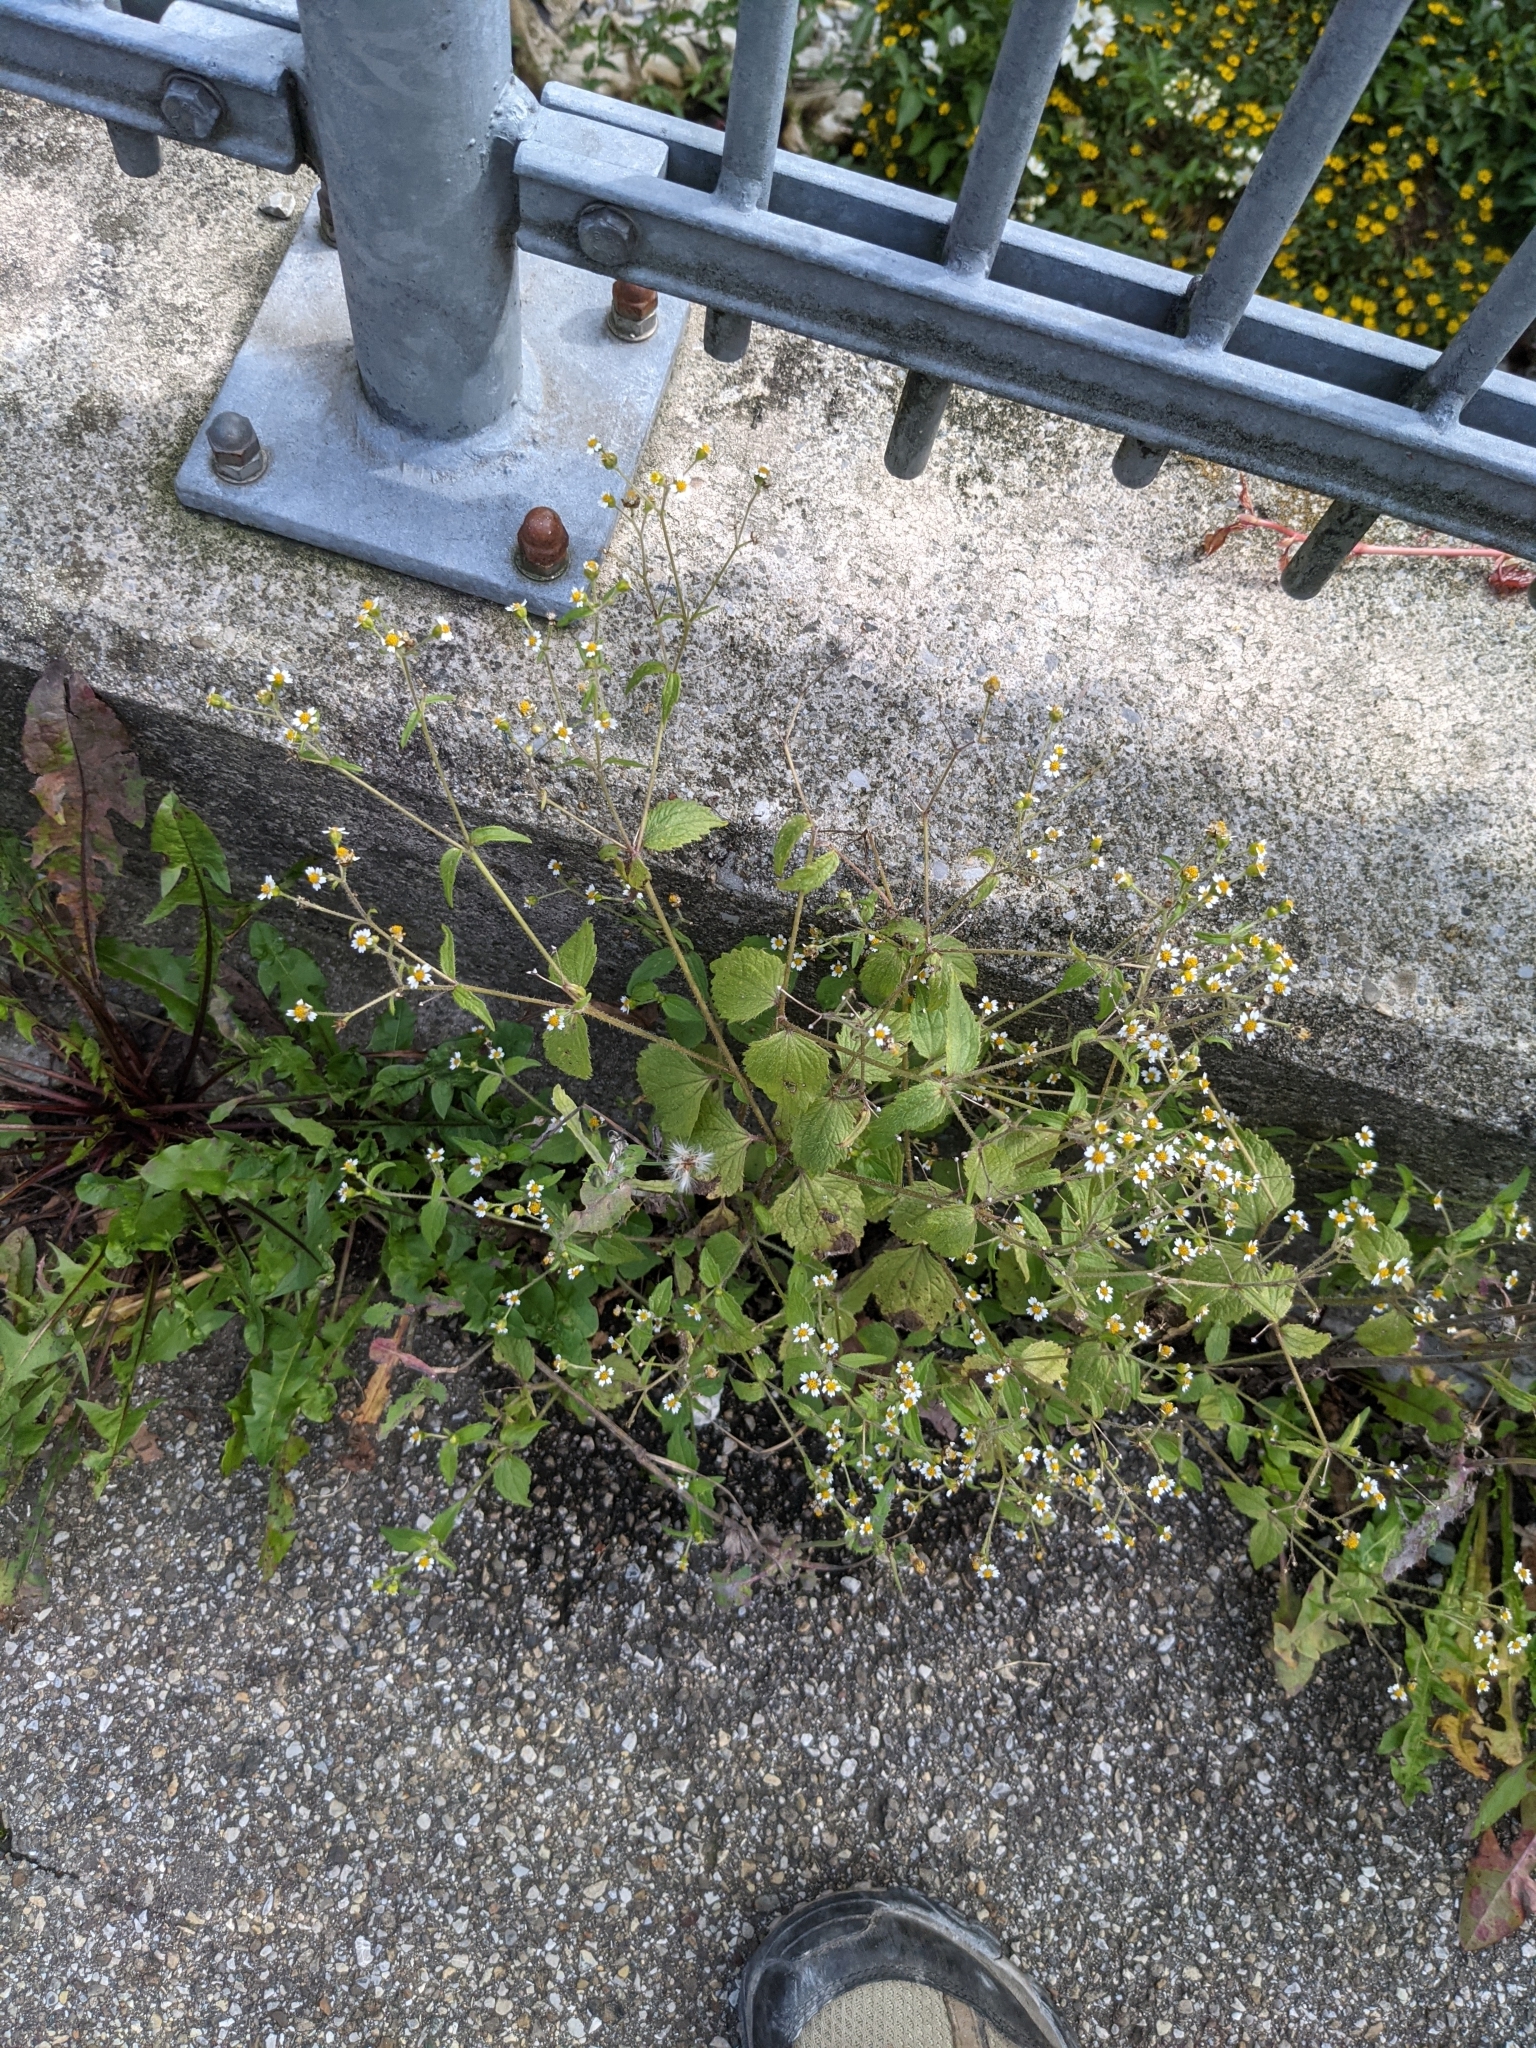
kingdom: Plantae
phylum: Tracheophyta
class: Magnoliopsida
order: Asterales
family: Asteraceae
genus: Galinsoga
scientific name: Galinsoga quadriradiata
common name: Shaggy soldier
